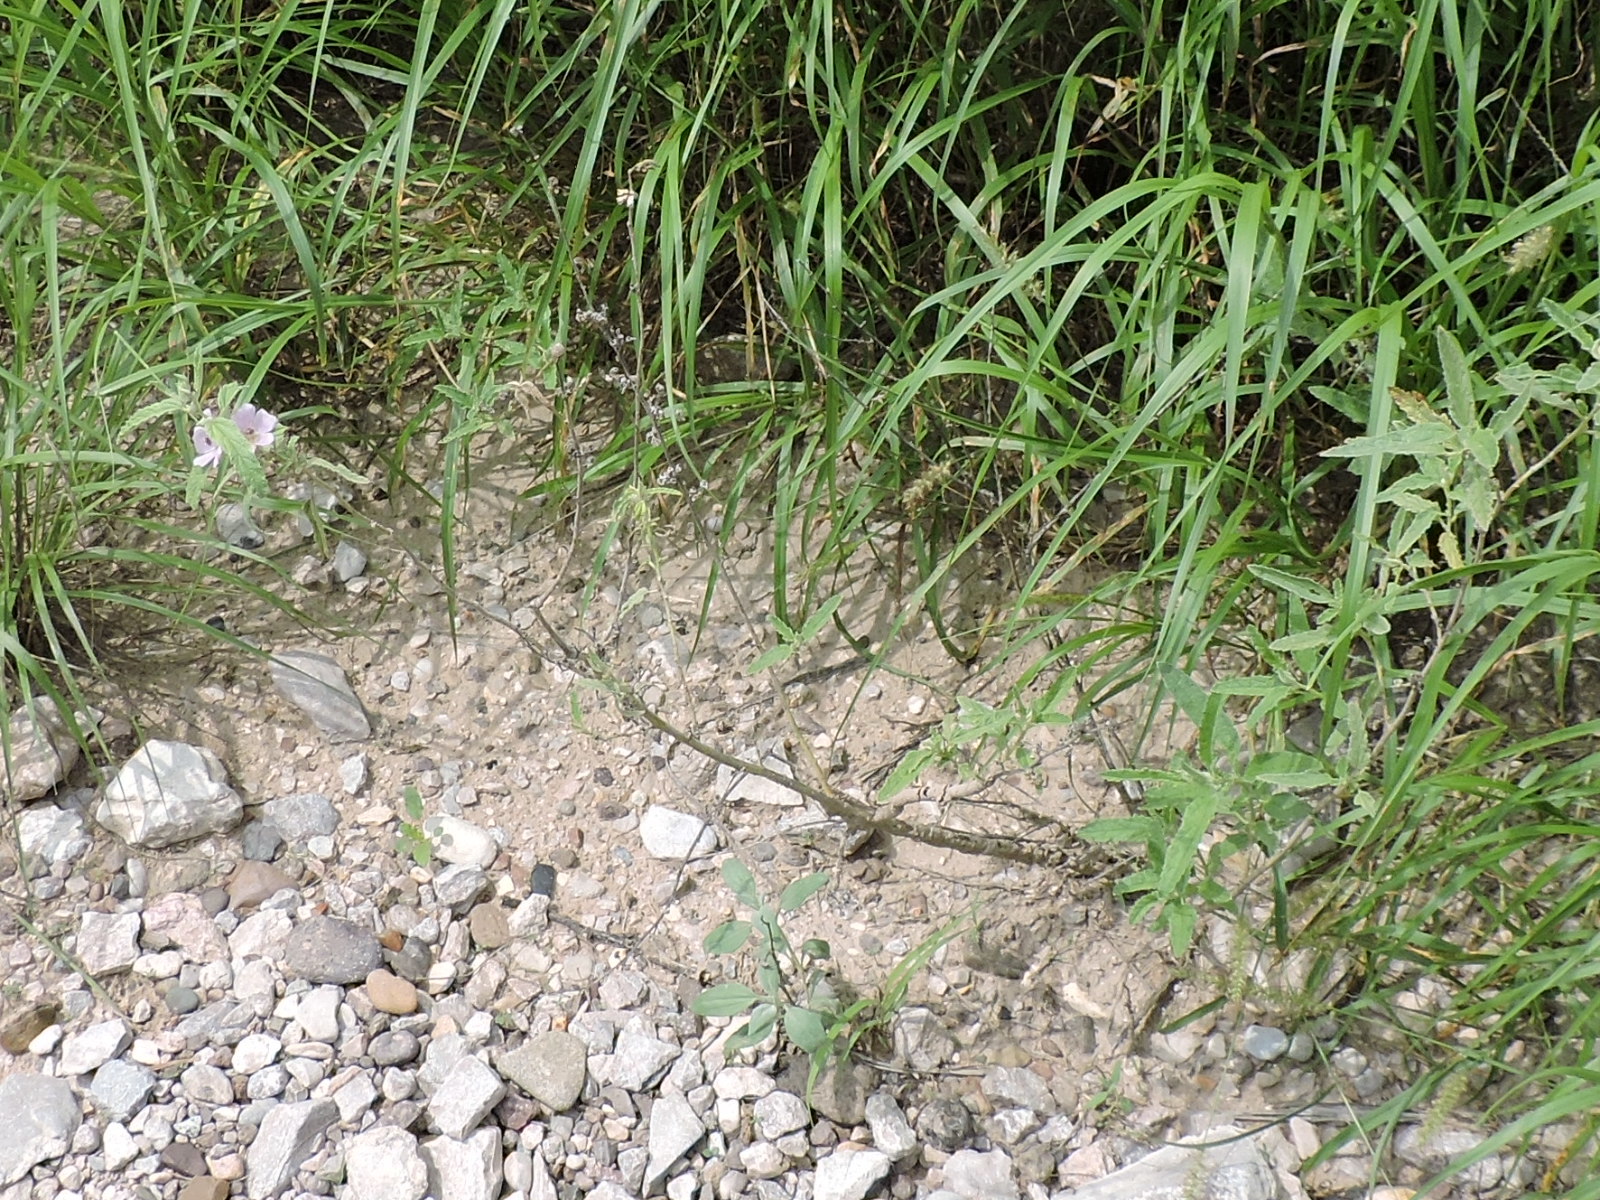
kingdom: Plantae
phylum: Tracheophyta
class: Magnoliopsida
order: Malvales
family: Malvaceae
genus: Sphaeralcea
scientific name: Sphaeralcea angustifolia
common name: Copper globe-mallow
